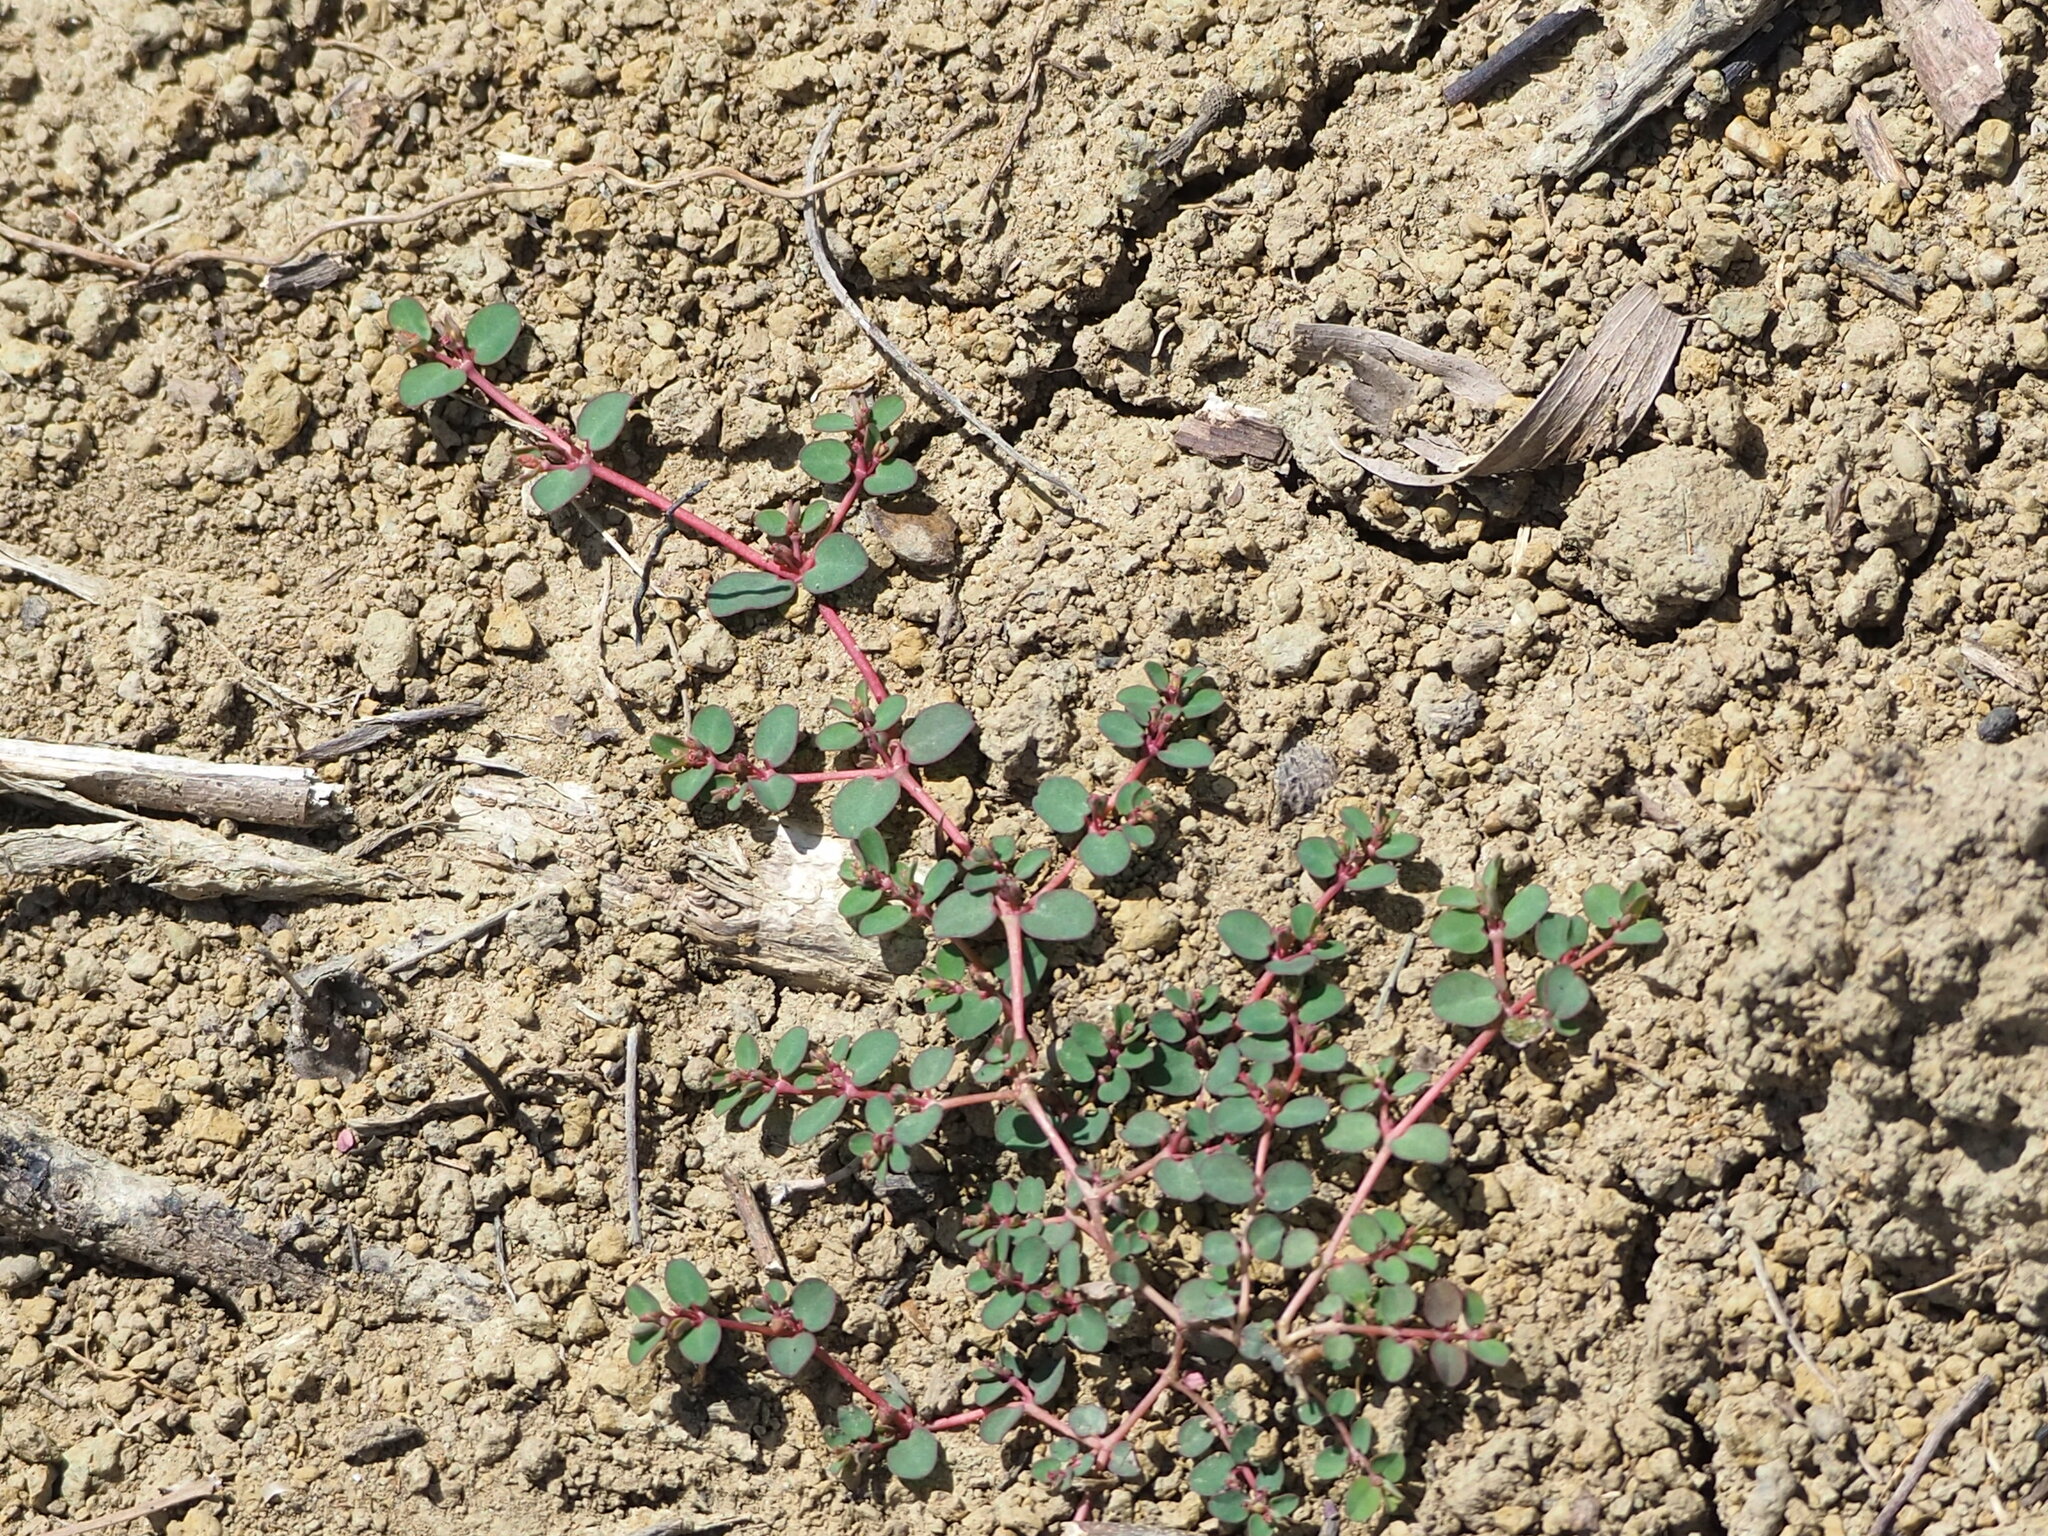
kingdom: Plantae
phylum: Tracheophyta
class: Magnoliopsida
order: Malpighiales
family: Euphorbiaceae
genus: Euphorbia
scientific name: Euphorbia serpens
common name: Matted sandmat
